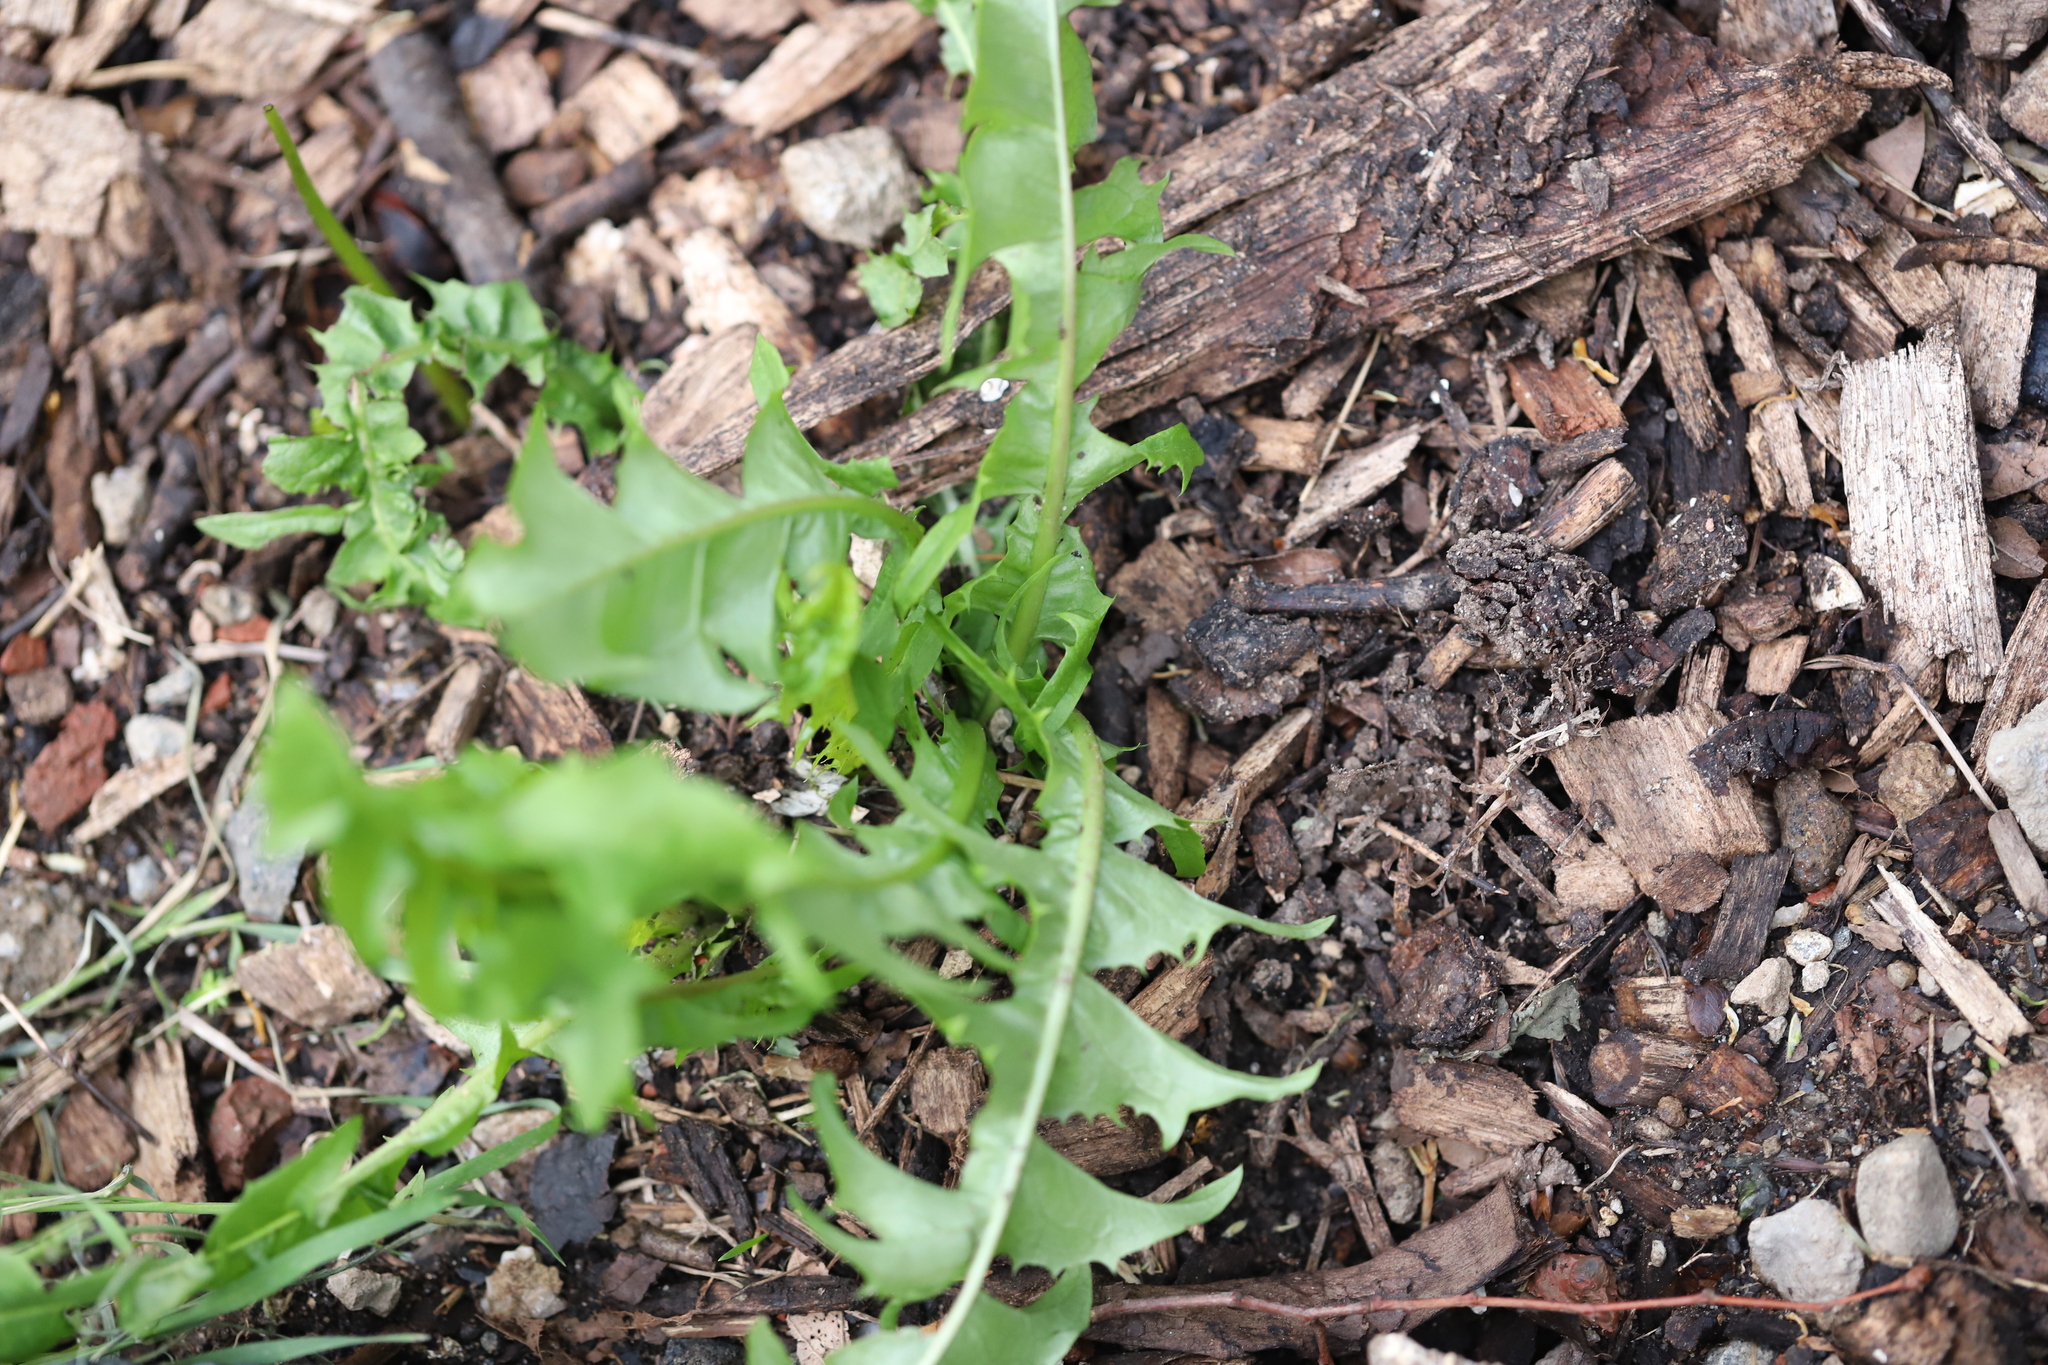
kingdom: Plantae
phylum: Tracheophyta
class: Magnoliopsida
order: Asterales
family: Asteraceae
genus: Taraxacum
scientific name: Taraxacum officinale
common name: Common dandelion
